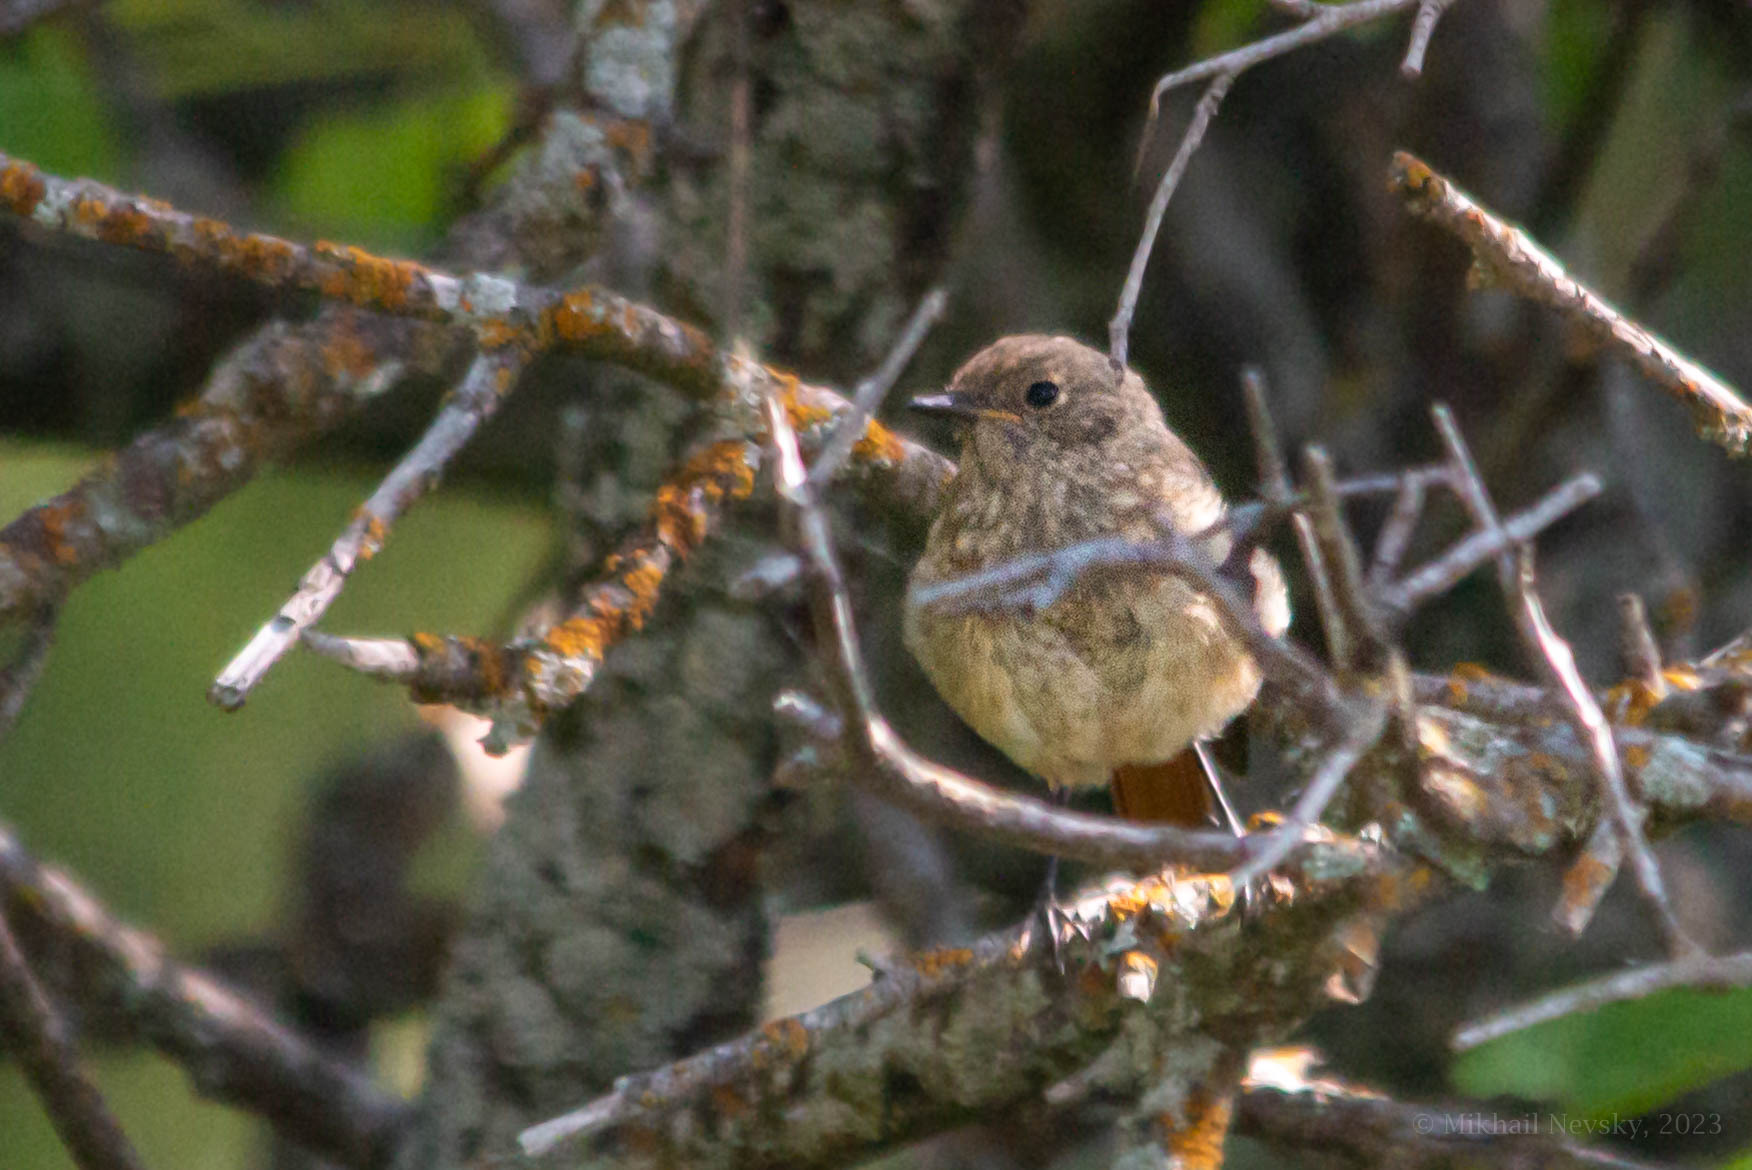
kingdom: Animalia
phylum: Chordata
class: Aves
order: Passeriformes
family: Muscicapidae
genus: Phoenicurus
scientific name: Phoenicurus phoenicurus
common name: Common redstart
